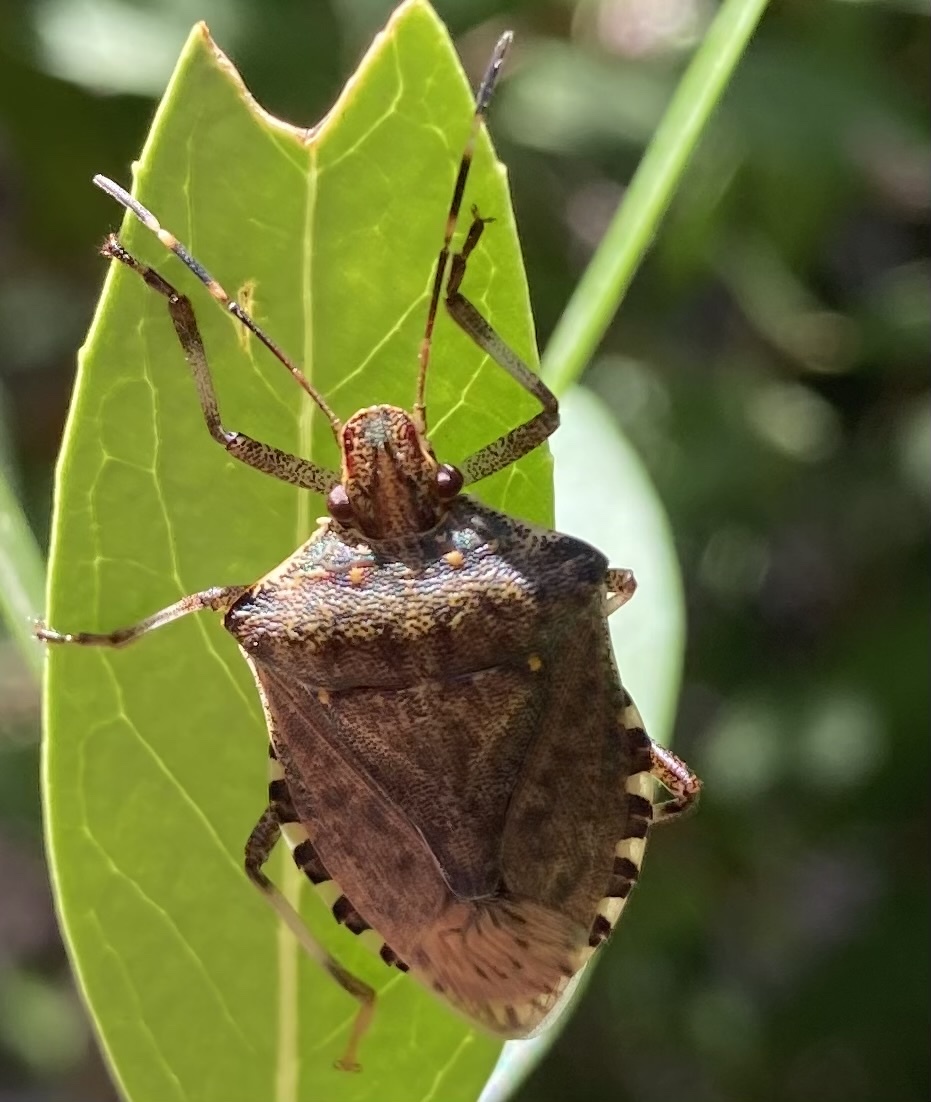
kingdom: Animalia
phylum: Arthropoda
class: Insecta
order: Hemiptera
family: Pentatomidae
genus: Halyomorpha
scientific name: Halyomorpha halys
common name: Brown marmorated stink bug
